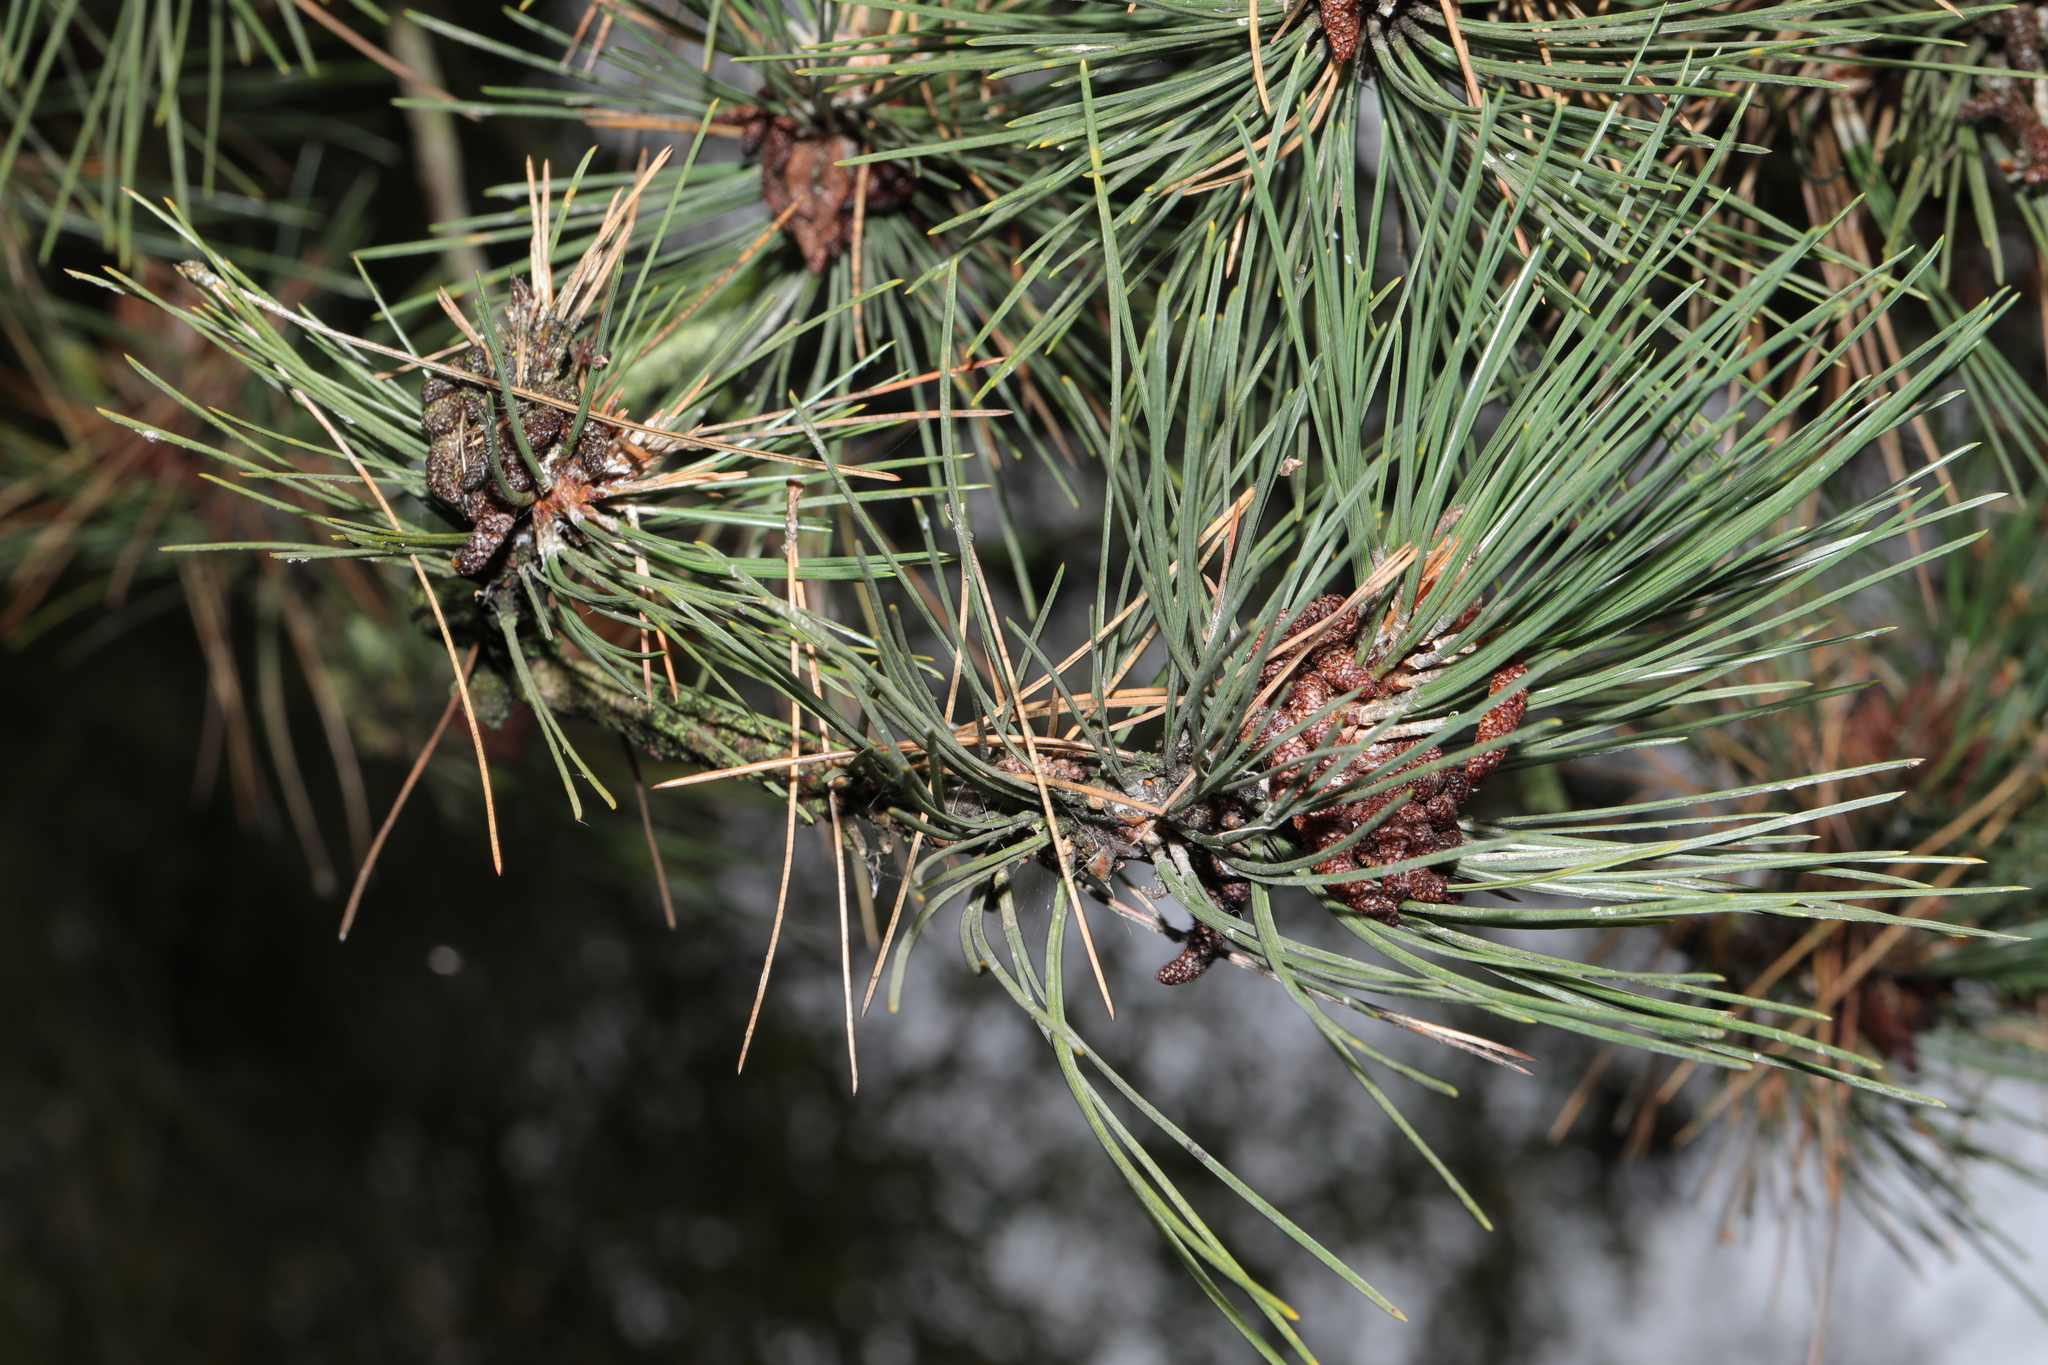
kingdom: Plantae
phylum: Tracheophyta
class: Pinopsida
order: Pinales
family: Pinaceae
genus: Pinus
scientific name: Pinus sylvestris
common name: Scots pine
